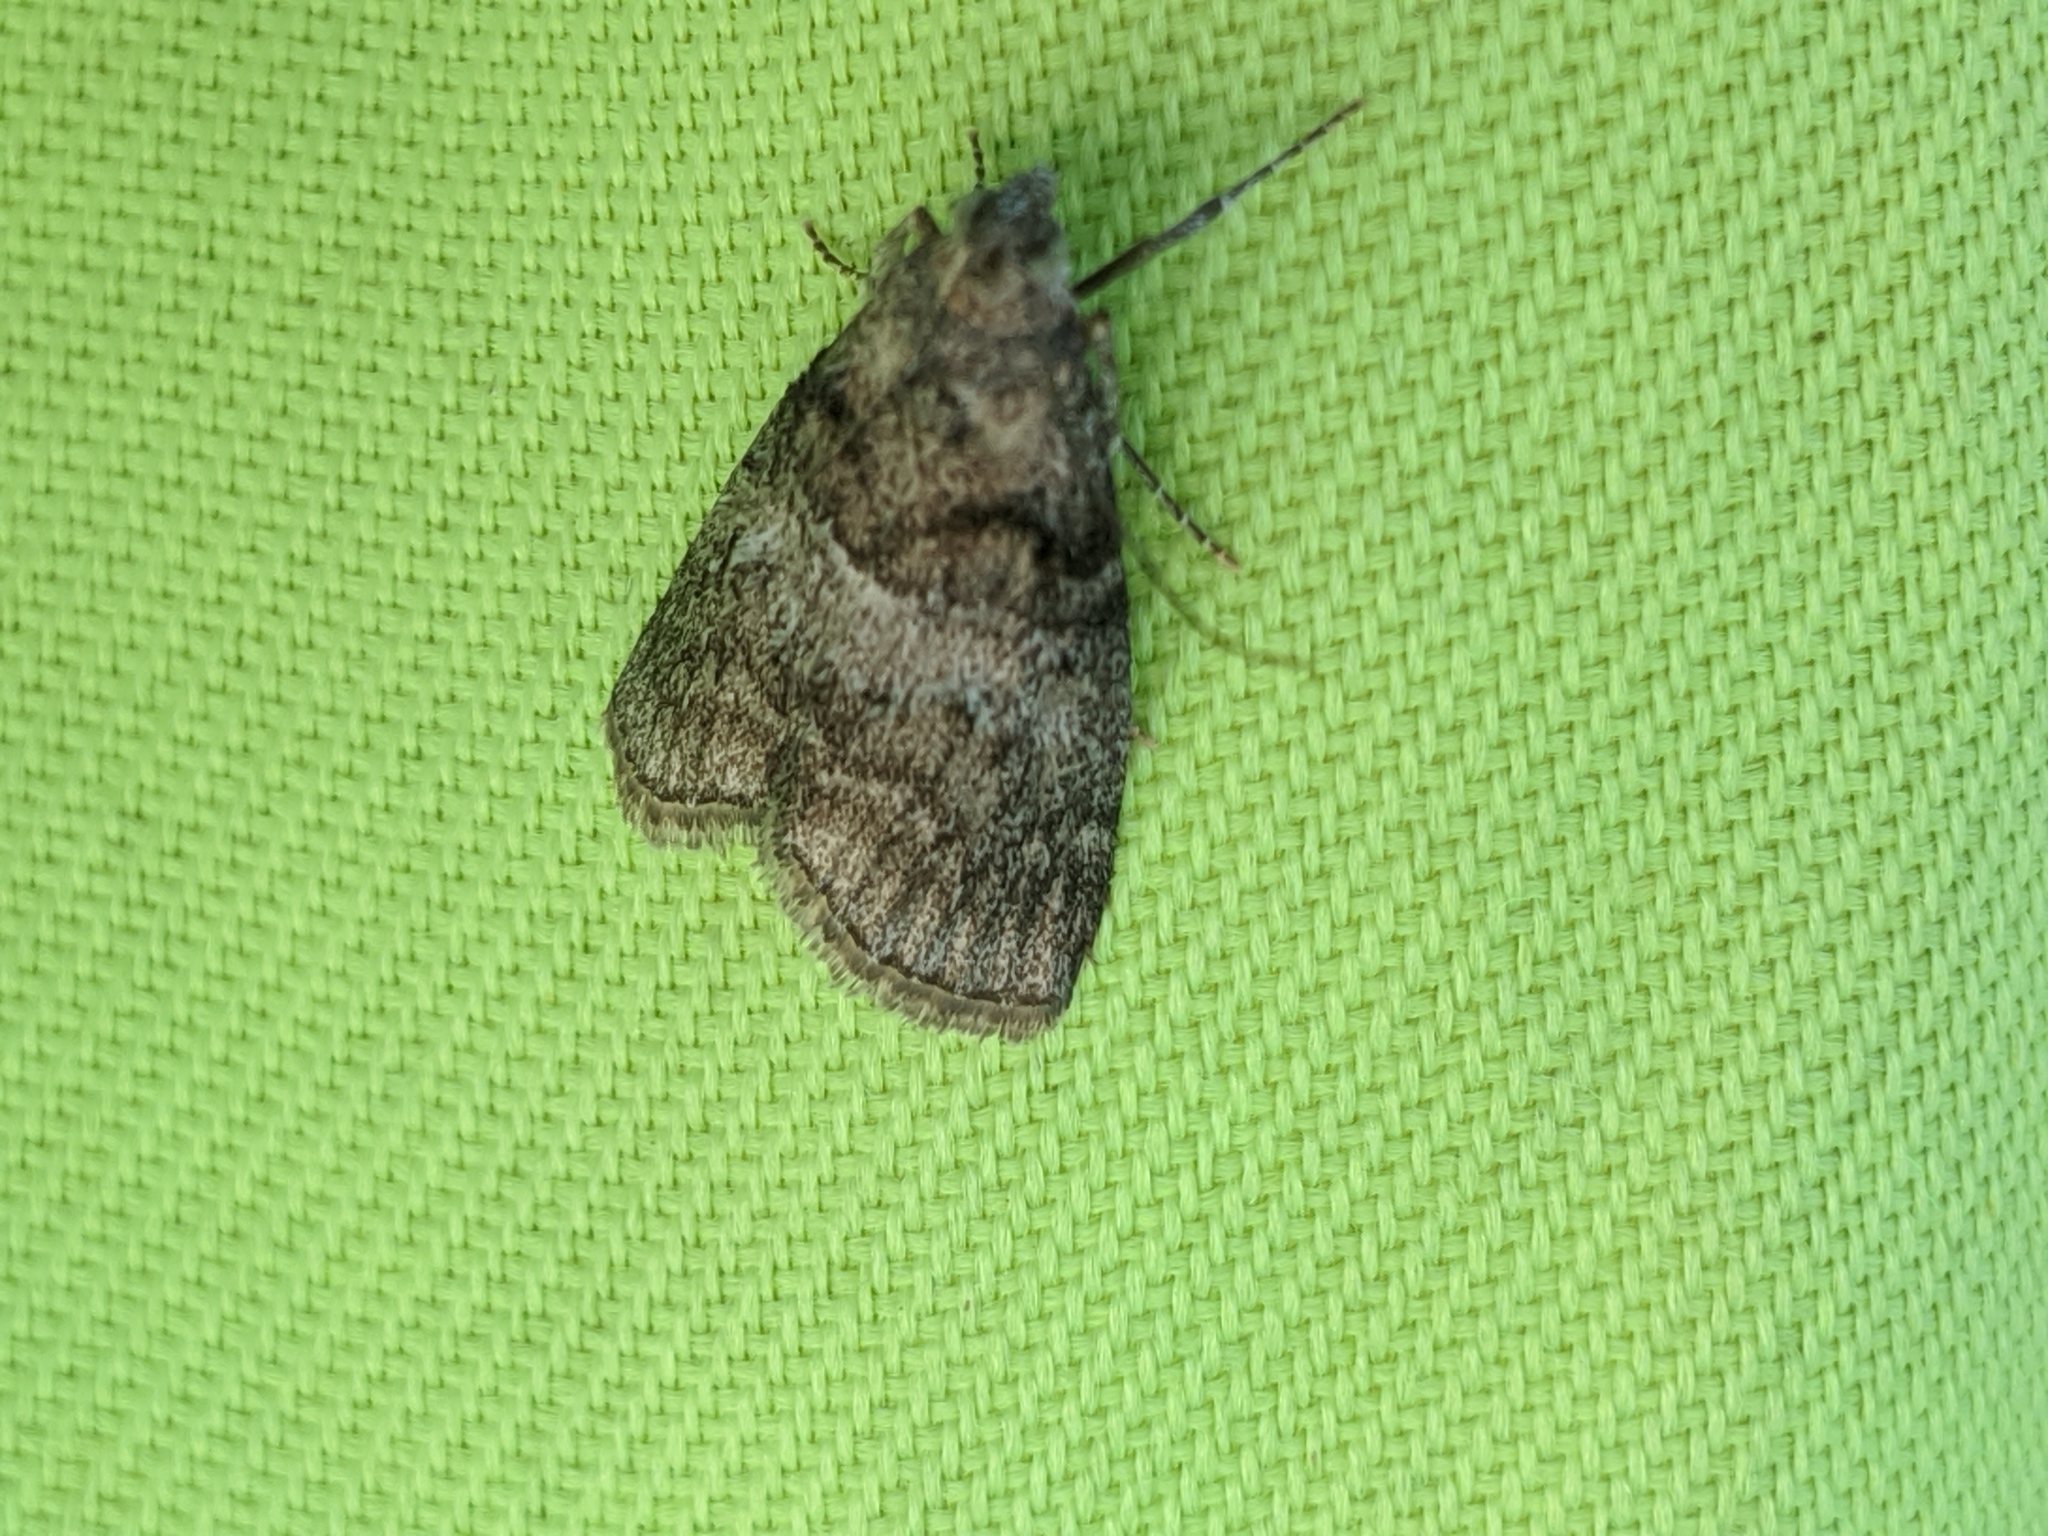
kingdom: Animalia
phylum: Arthropoda
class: Insecta
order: Lepidoptera
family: Pyralidae
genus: Pococera
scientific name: Pococera asperatella
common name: Maple webworm moth
